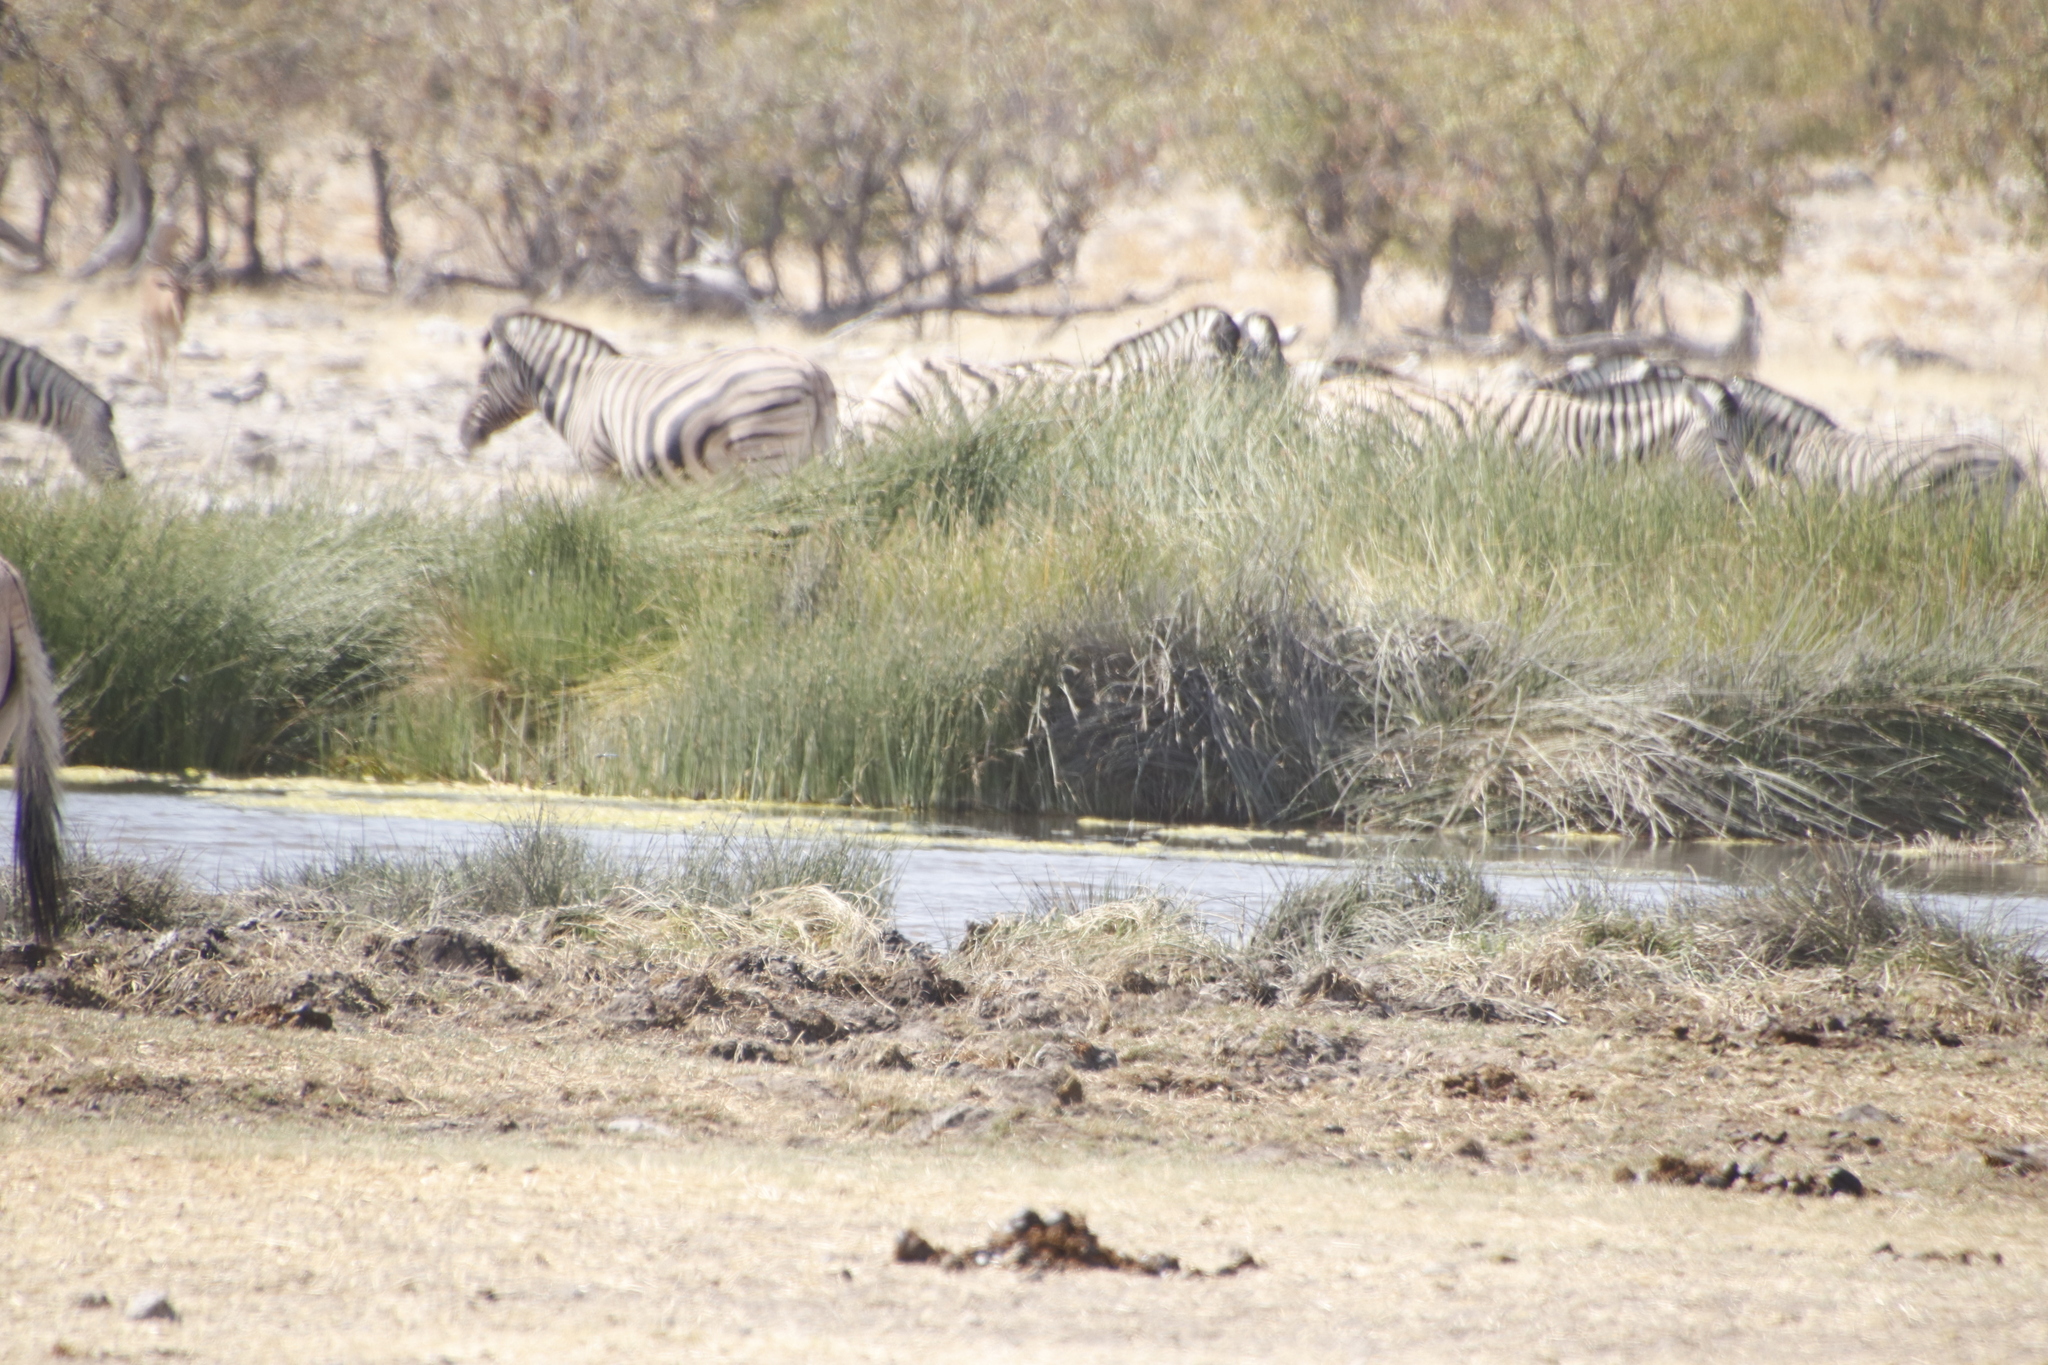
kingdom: Plantae
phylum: Tracheophyta
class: Liliopsida
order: Poales
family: Poaceae
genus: Phragmites
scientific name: Phragmites australis
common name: Common reed
